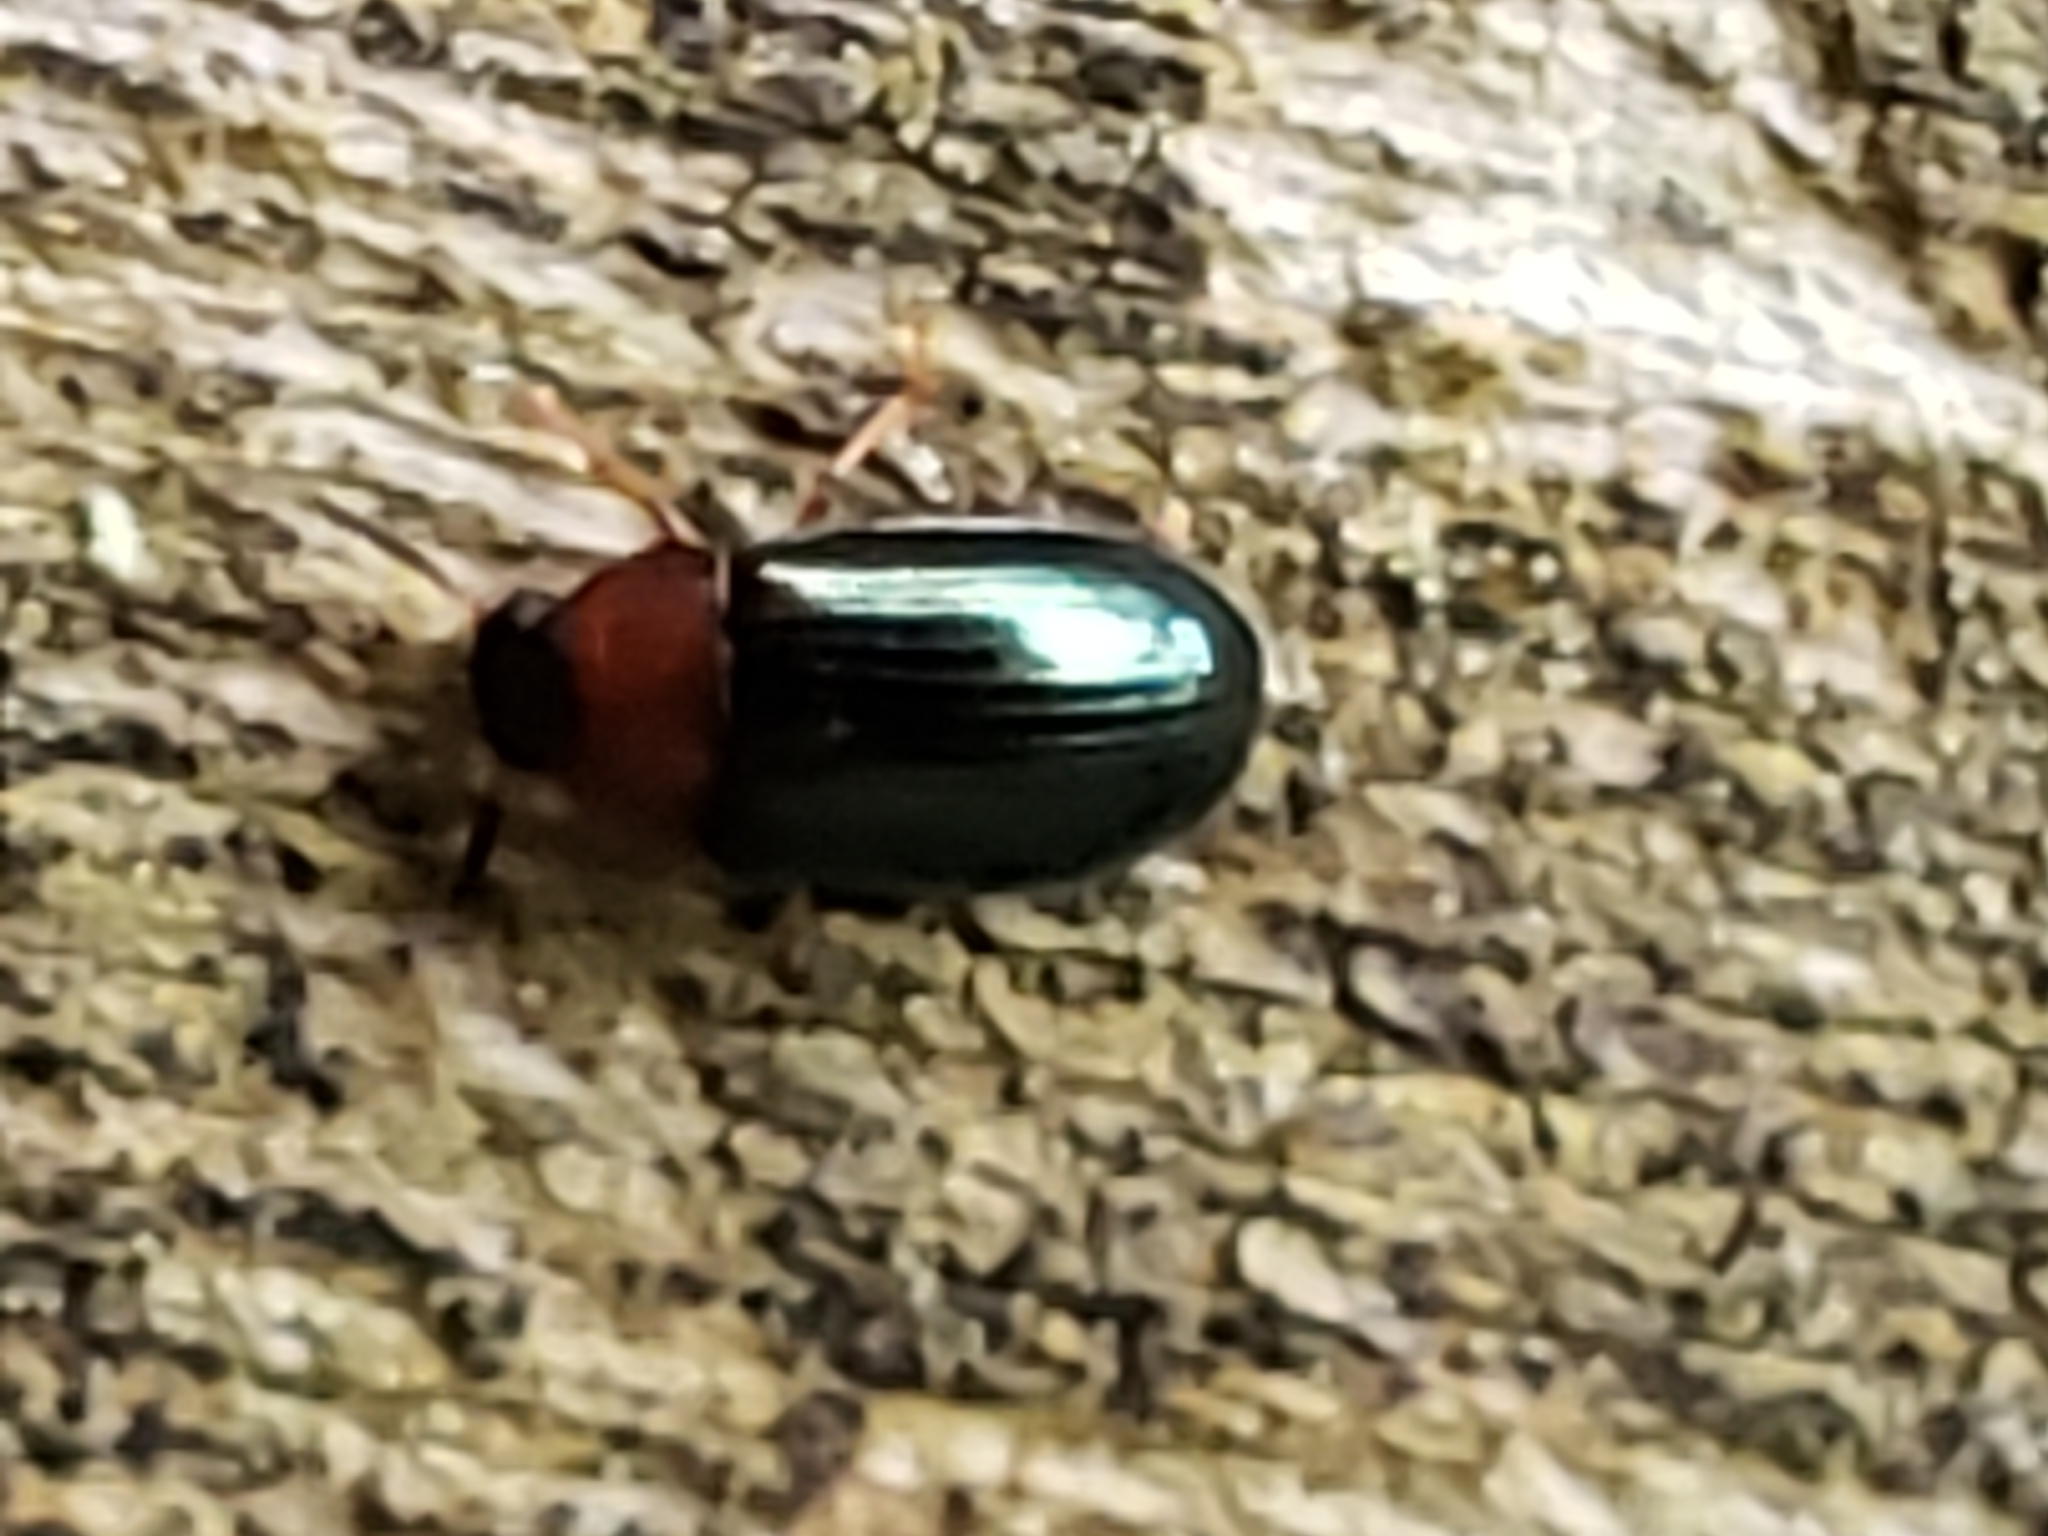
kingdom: Animalia
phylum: Arthropoda
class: Insecta
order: Coleoptera
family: Tenebrionidae
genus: Neomida
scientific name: Neomida bicornis
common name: Two-horned darkling beetle
